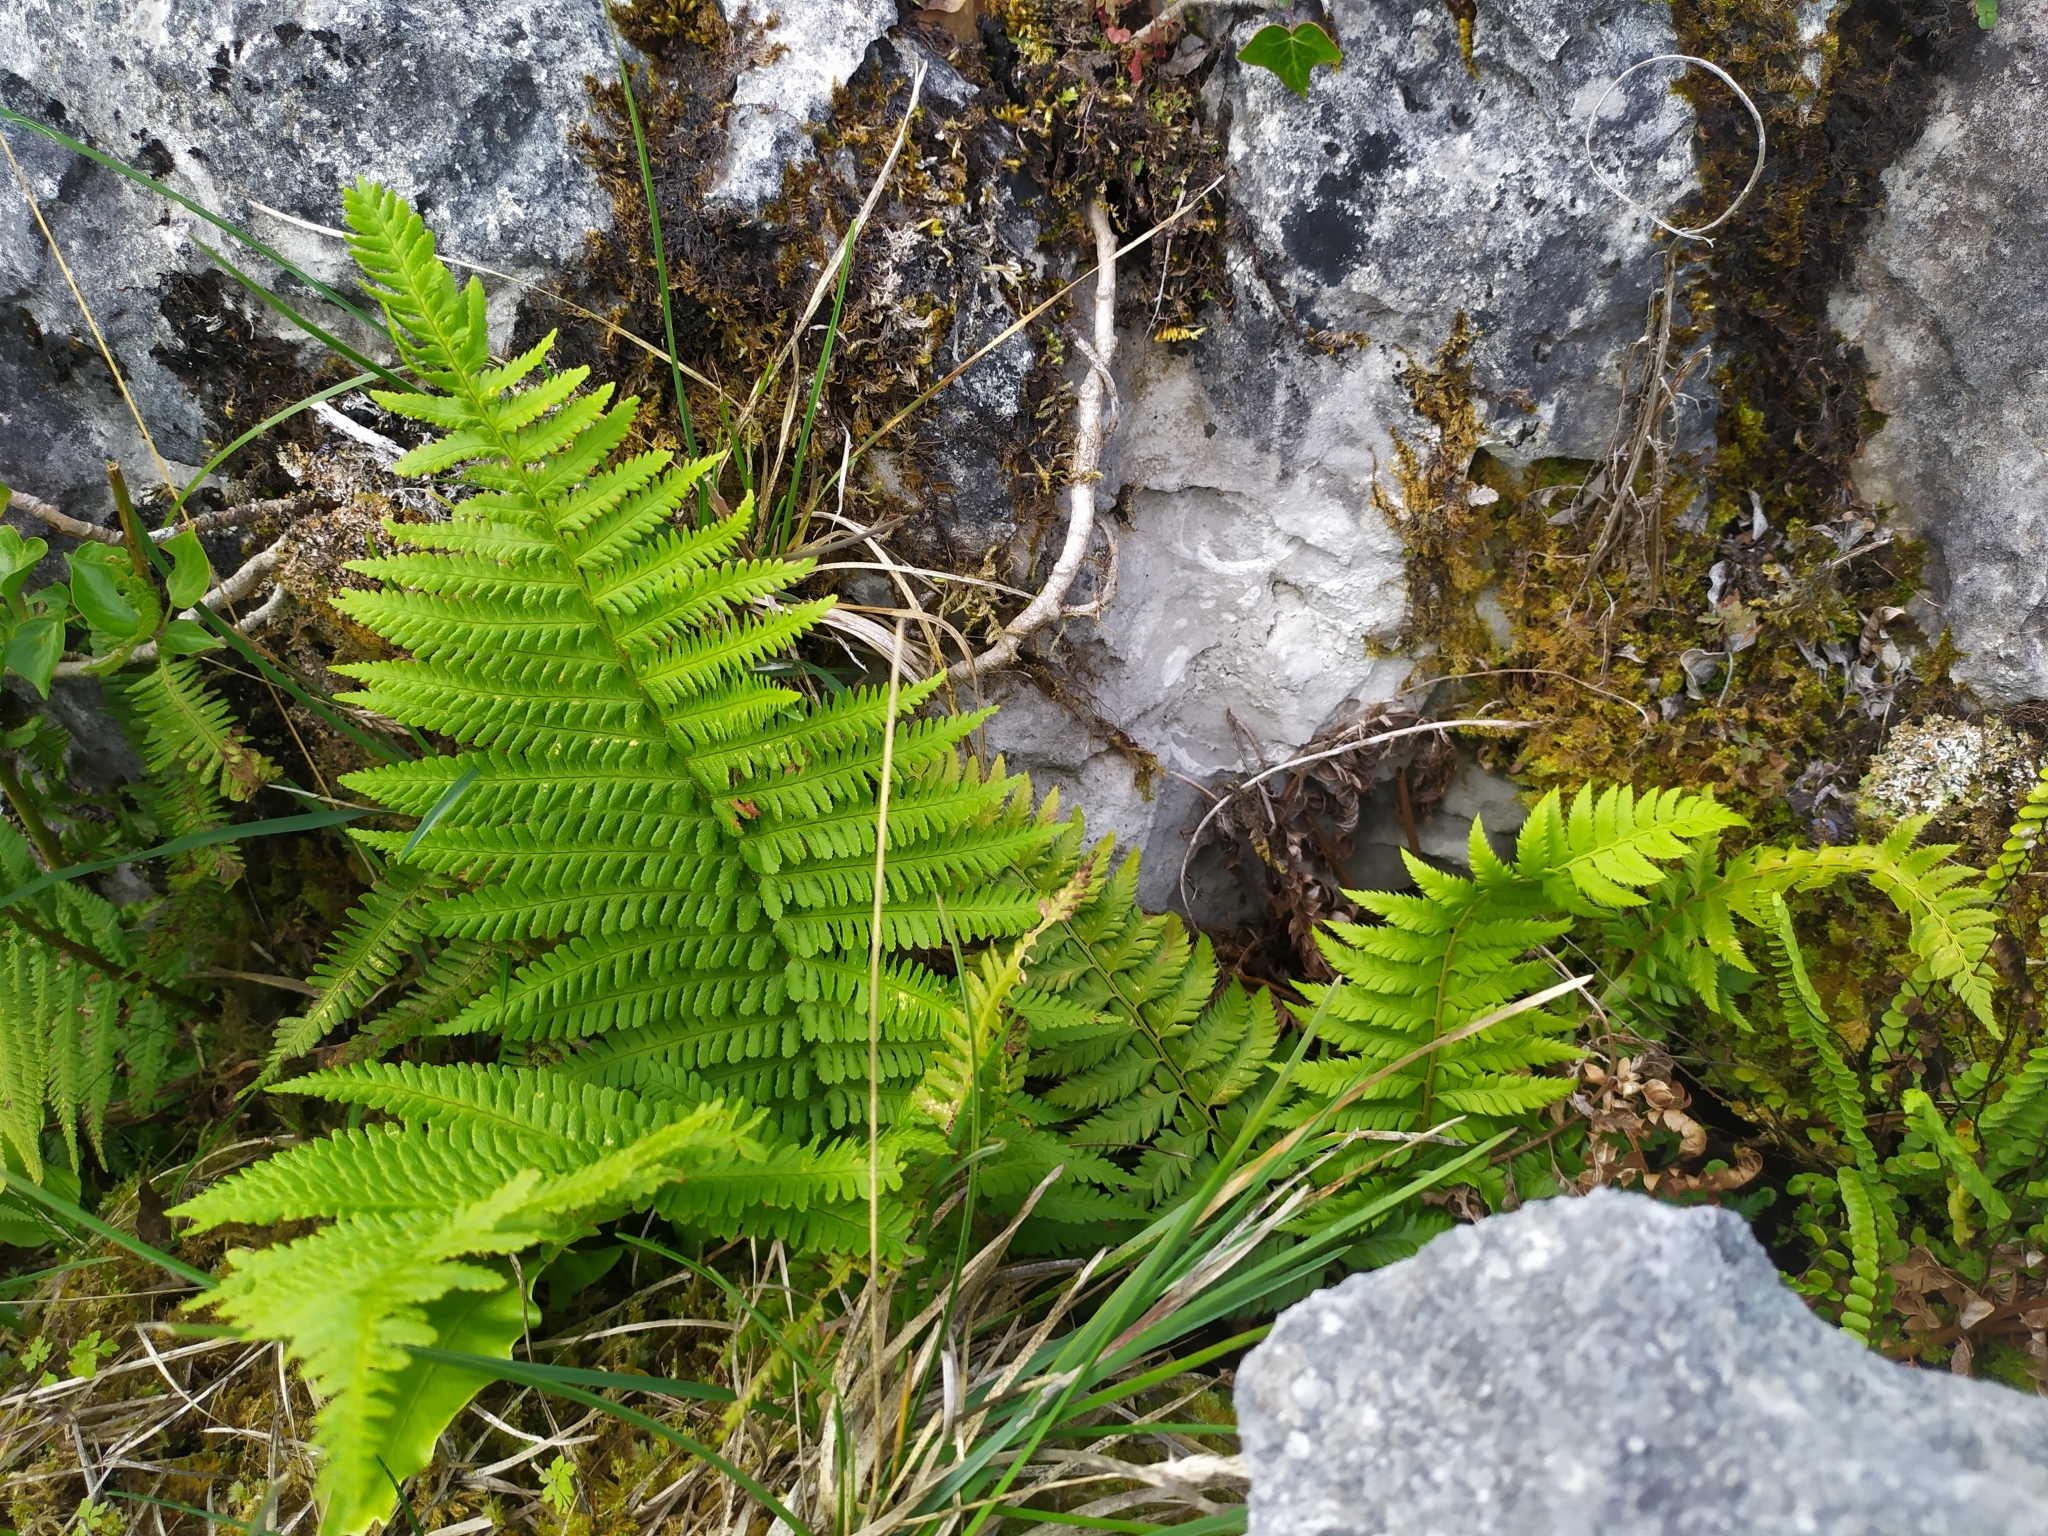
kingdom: Plantae
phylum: Tracheophyta
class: Polypodiopsida
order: Polypodiales
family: Dryopteridaceae
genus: Polystichum
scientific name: Polystichum aculeatum
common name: Hard shield-fern
